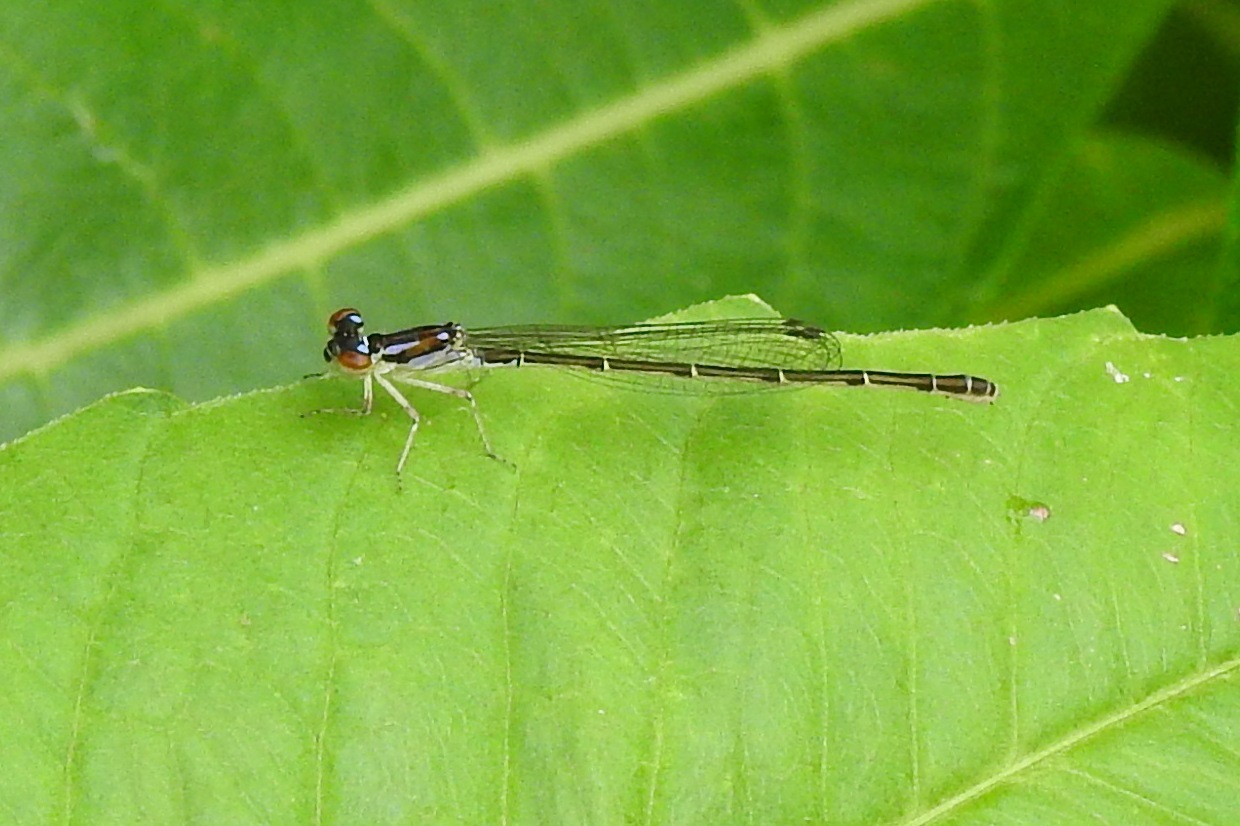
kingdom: Animalia
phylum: Arthropoda
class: Insecta
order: Odonata
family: Coenagrionidae
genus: Ischnura
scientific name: Ischnura posita
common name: Fragile forktail
